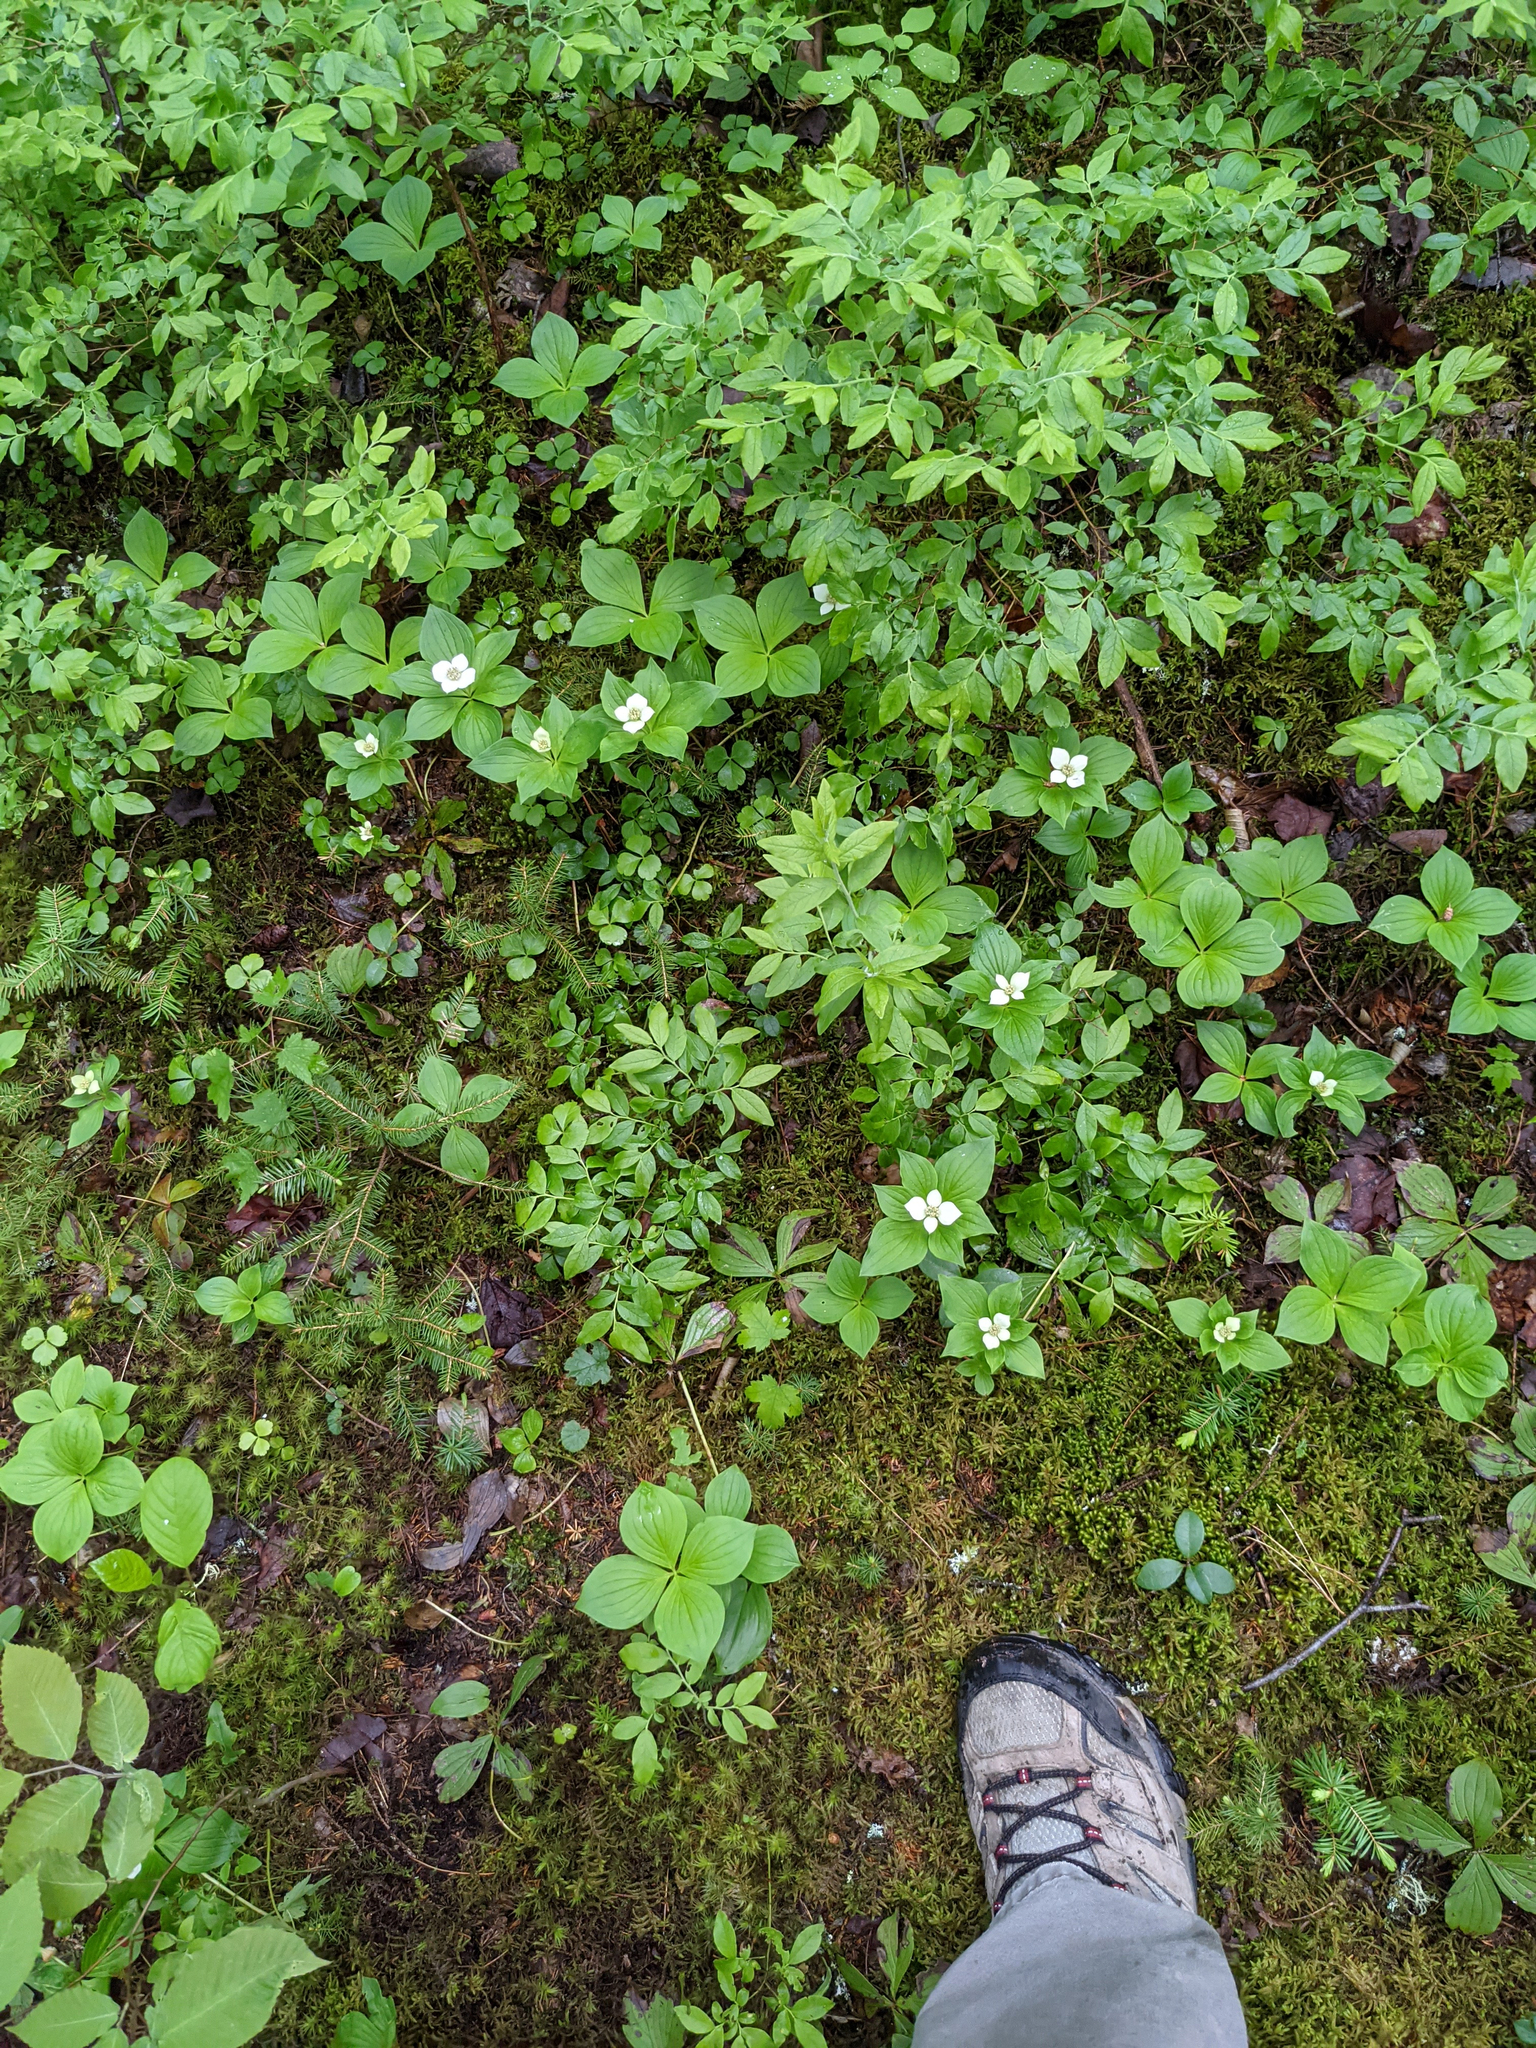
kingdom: Plantae
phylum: Tracheophyta
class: Magnoliopsida
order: Cornales
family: Cornaceae
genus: Cornus
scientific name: Cornus canadensis
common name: Creeping dogwood
